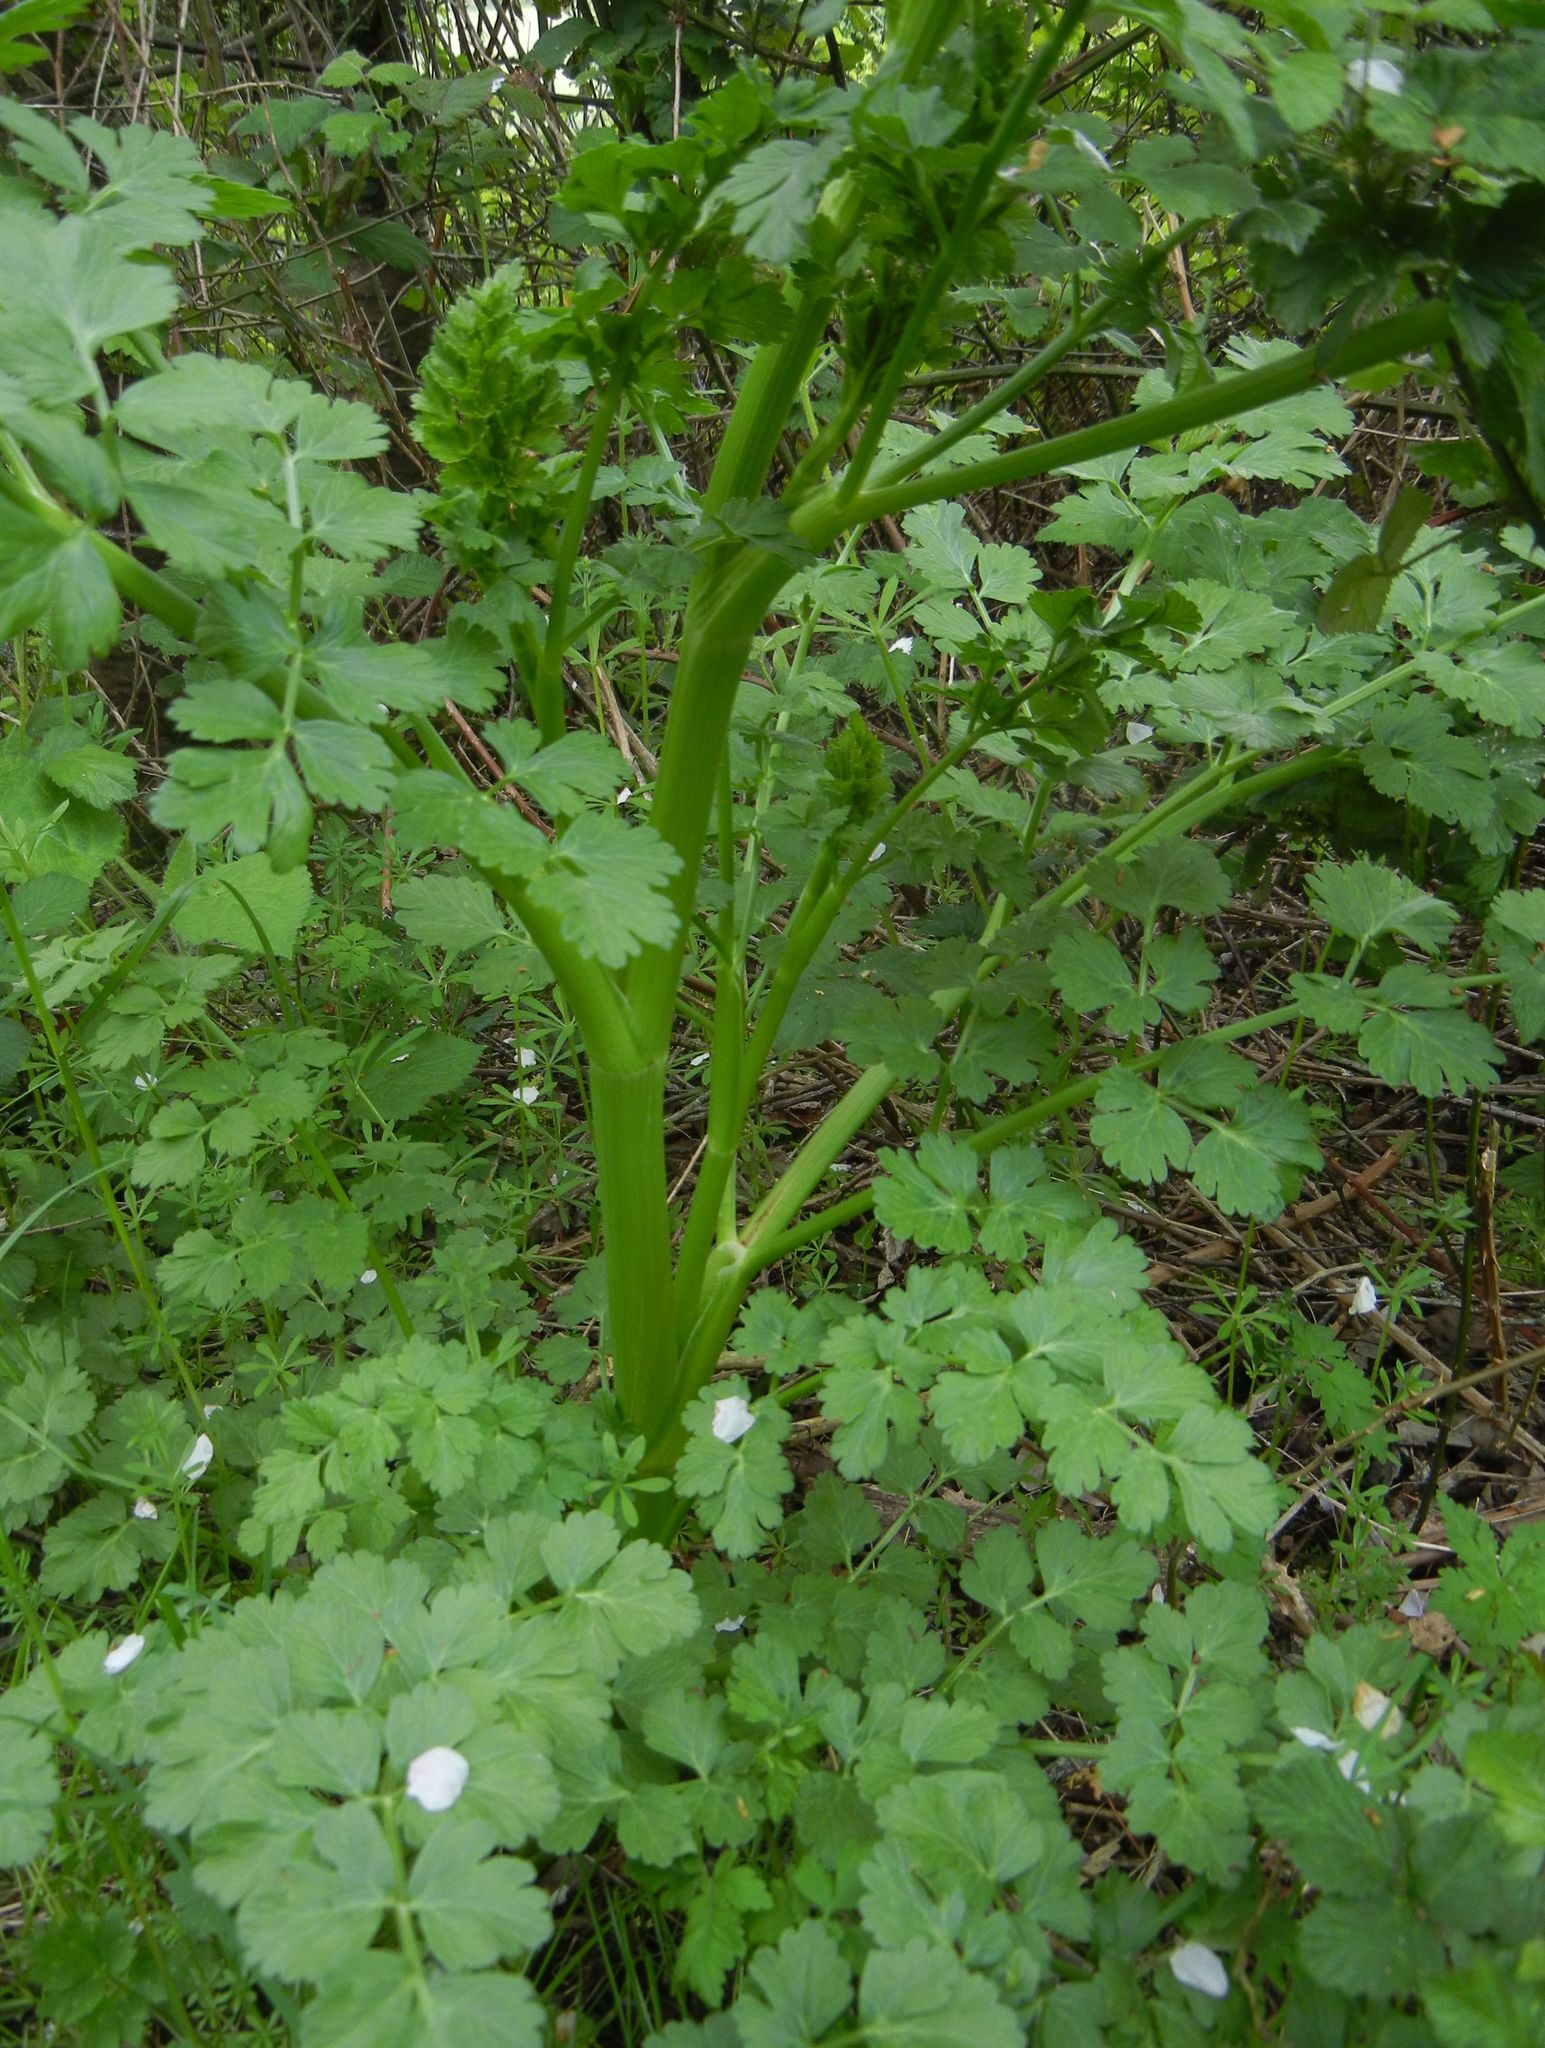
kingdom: Plantae
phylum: Tracheophyta
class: Magnoliopsida
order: Apiales
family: Apiaceae
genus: Oenanthe
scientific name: Oenanthe crocata
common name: Hemlock water-dropwort
